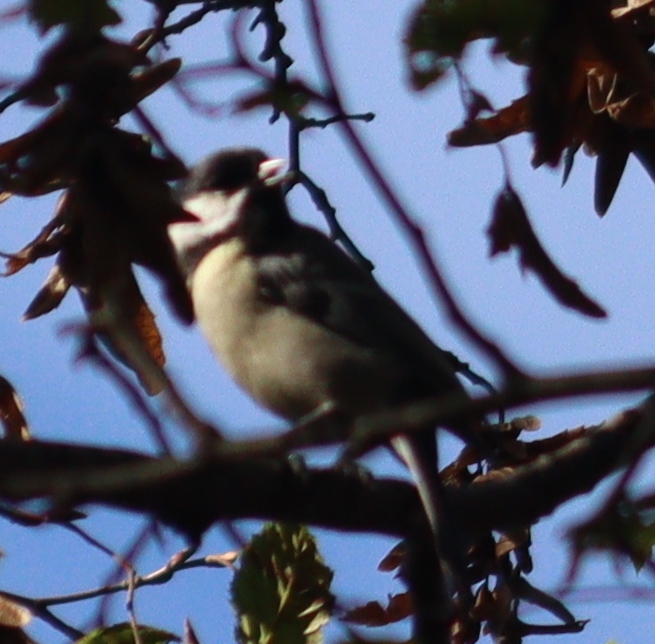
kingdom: Animalia
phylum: Chordata
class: Aves
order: Passeriformes
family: Paridae
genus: Parus
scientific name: Parus major
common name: Great tit
